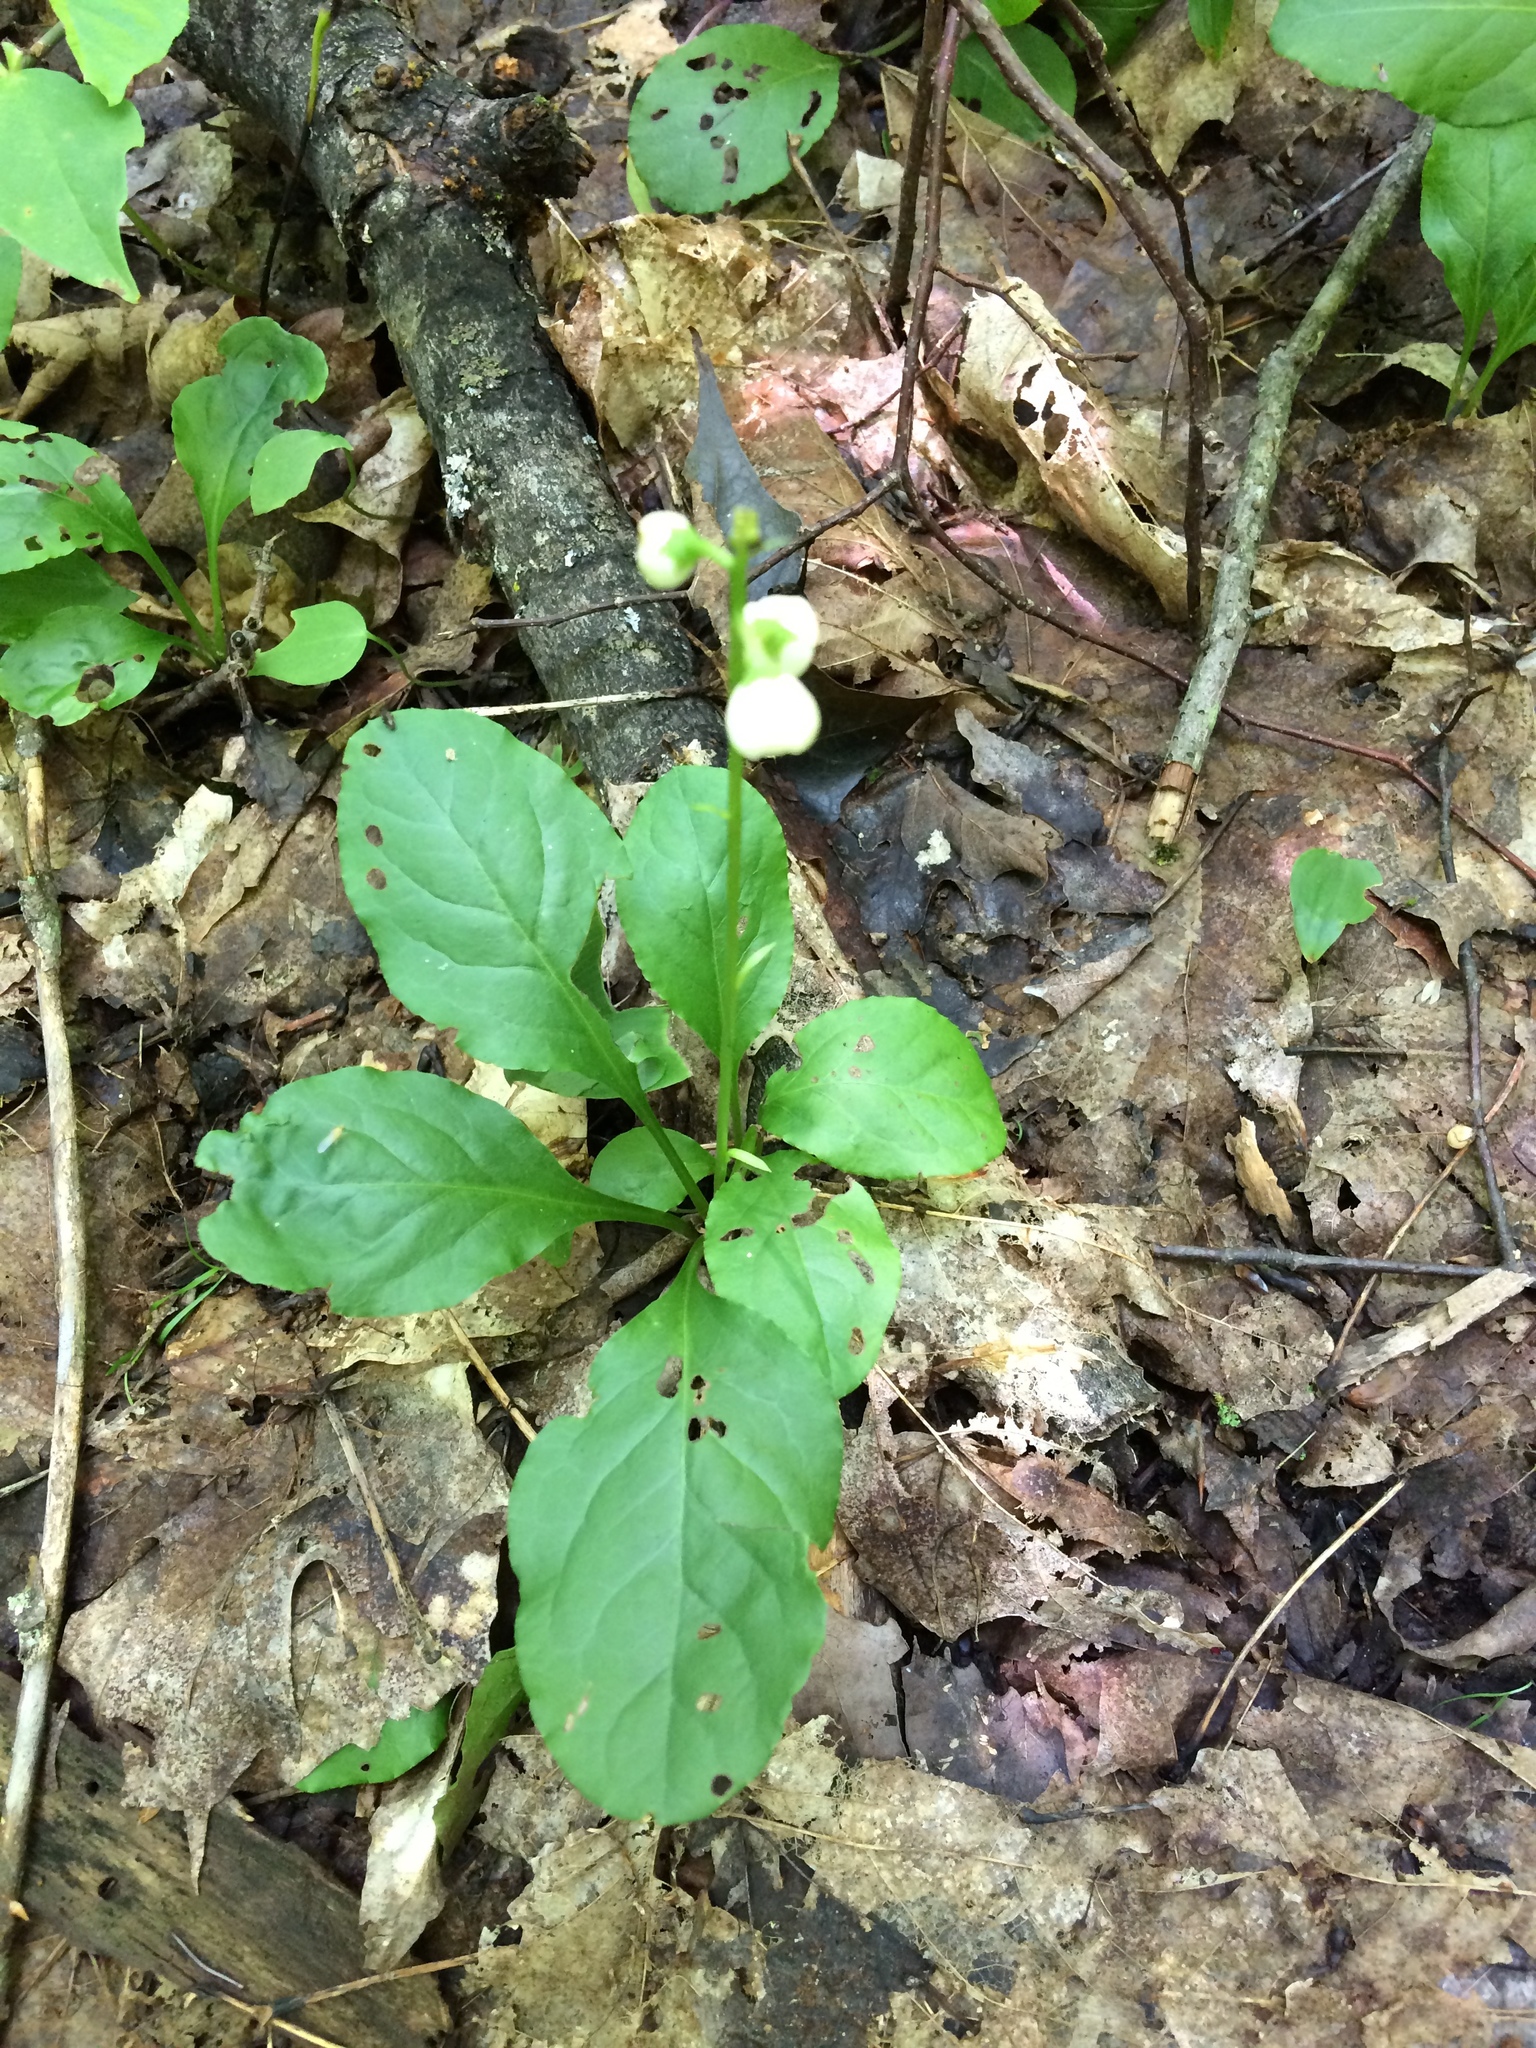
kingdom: Plantae
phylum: Tracheophyta
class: Magnoliopsida
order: Ericales
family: Ericaceae
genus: Pyrola
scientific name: Pyrola elliptica
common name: Shinleaf
